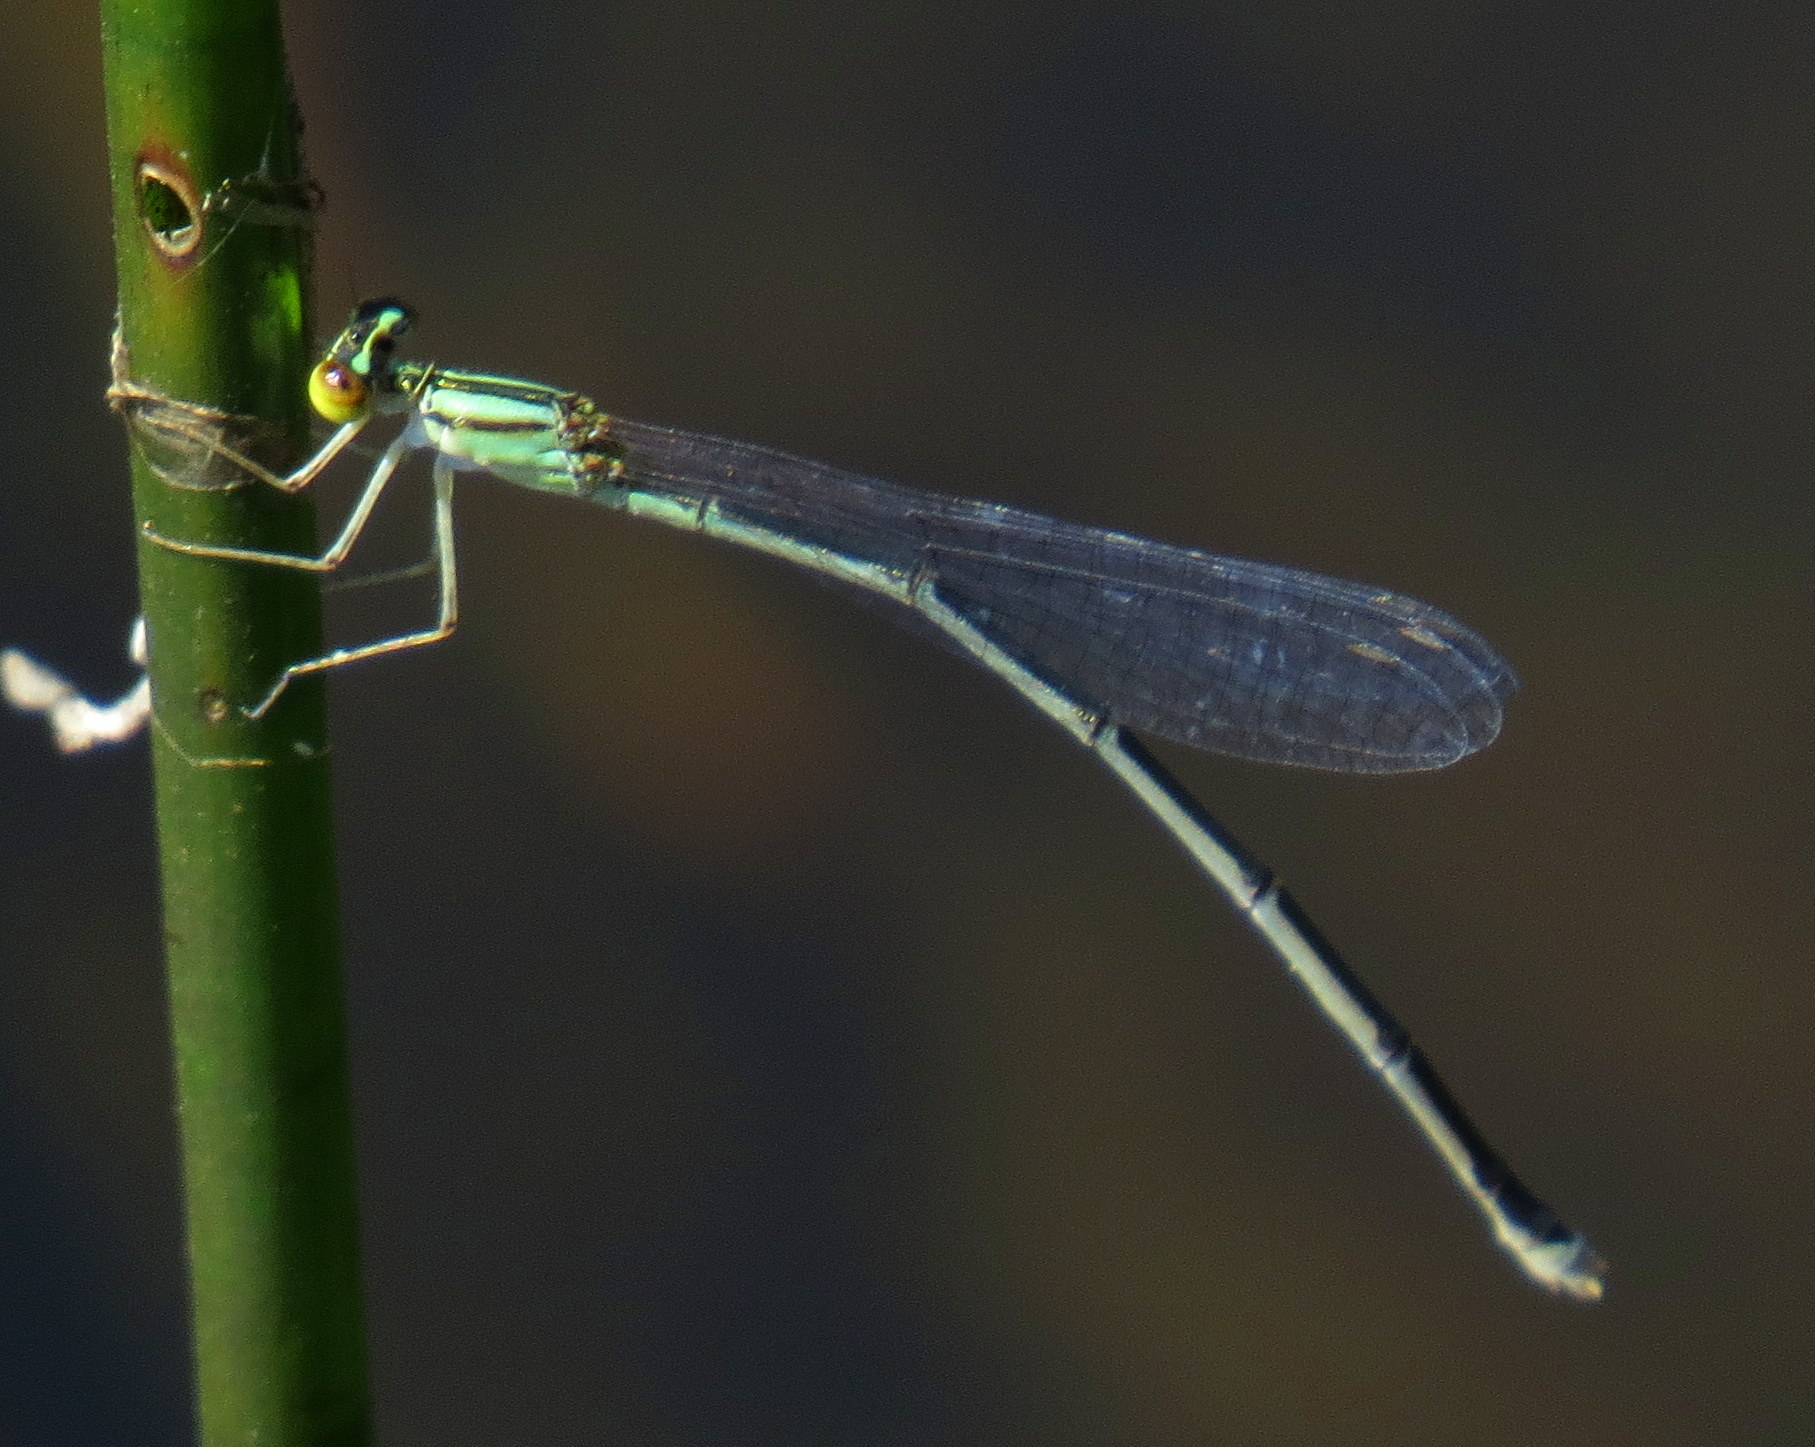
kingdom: Animalia
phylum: Arthropoda
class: Insecta
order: Odonata
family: Coenagrionidae
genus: Enallagma
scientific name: Enallagma vesperum
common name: Vesper bluet
